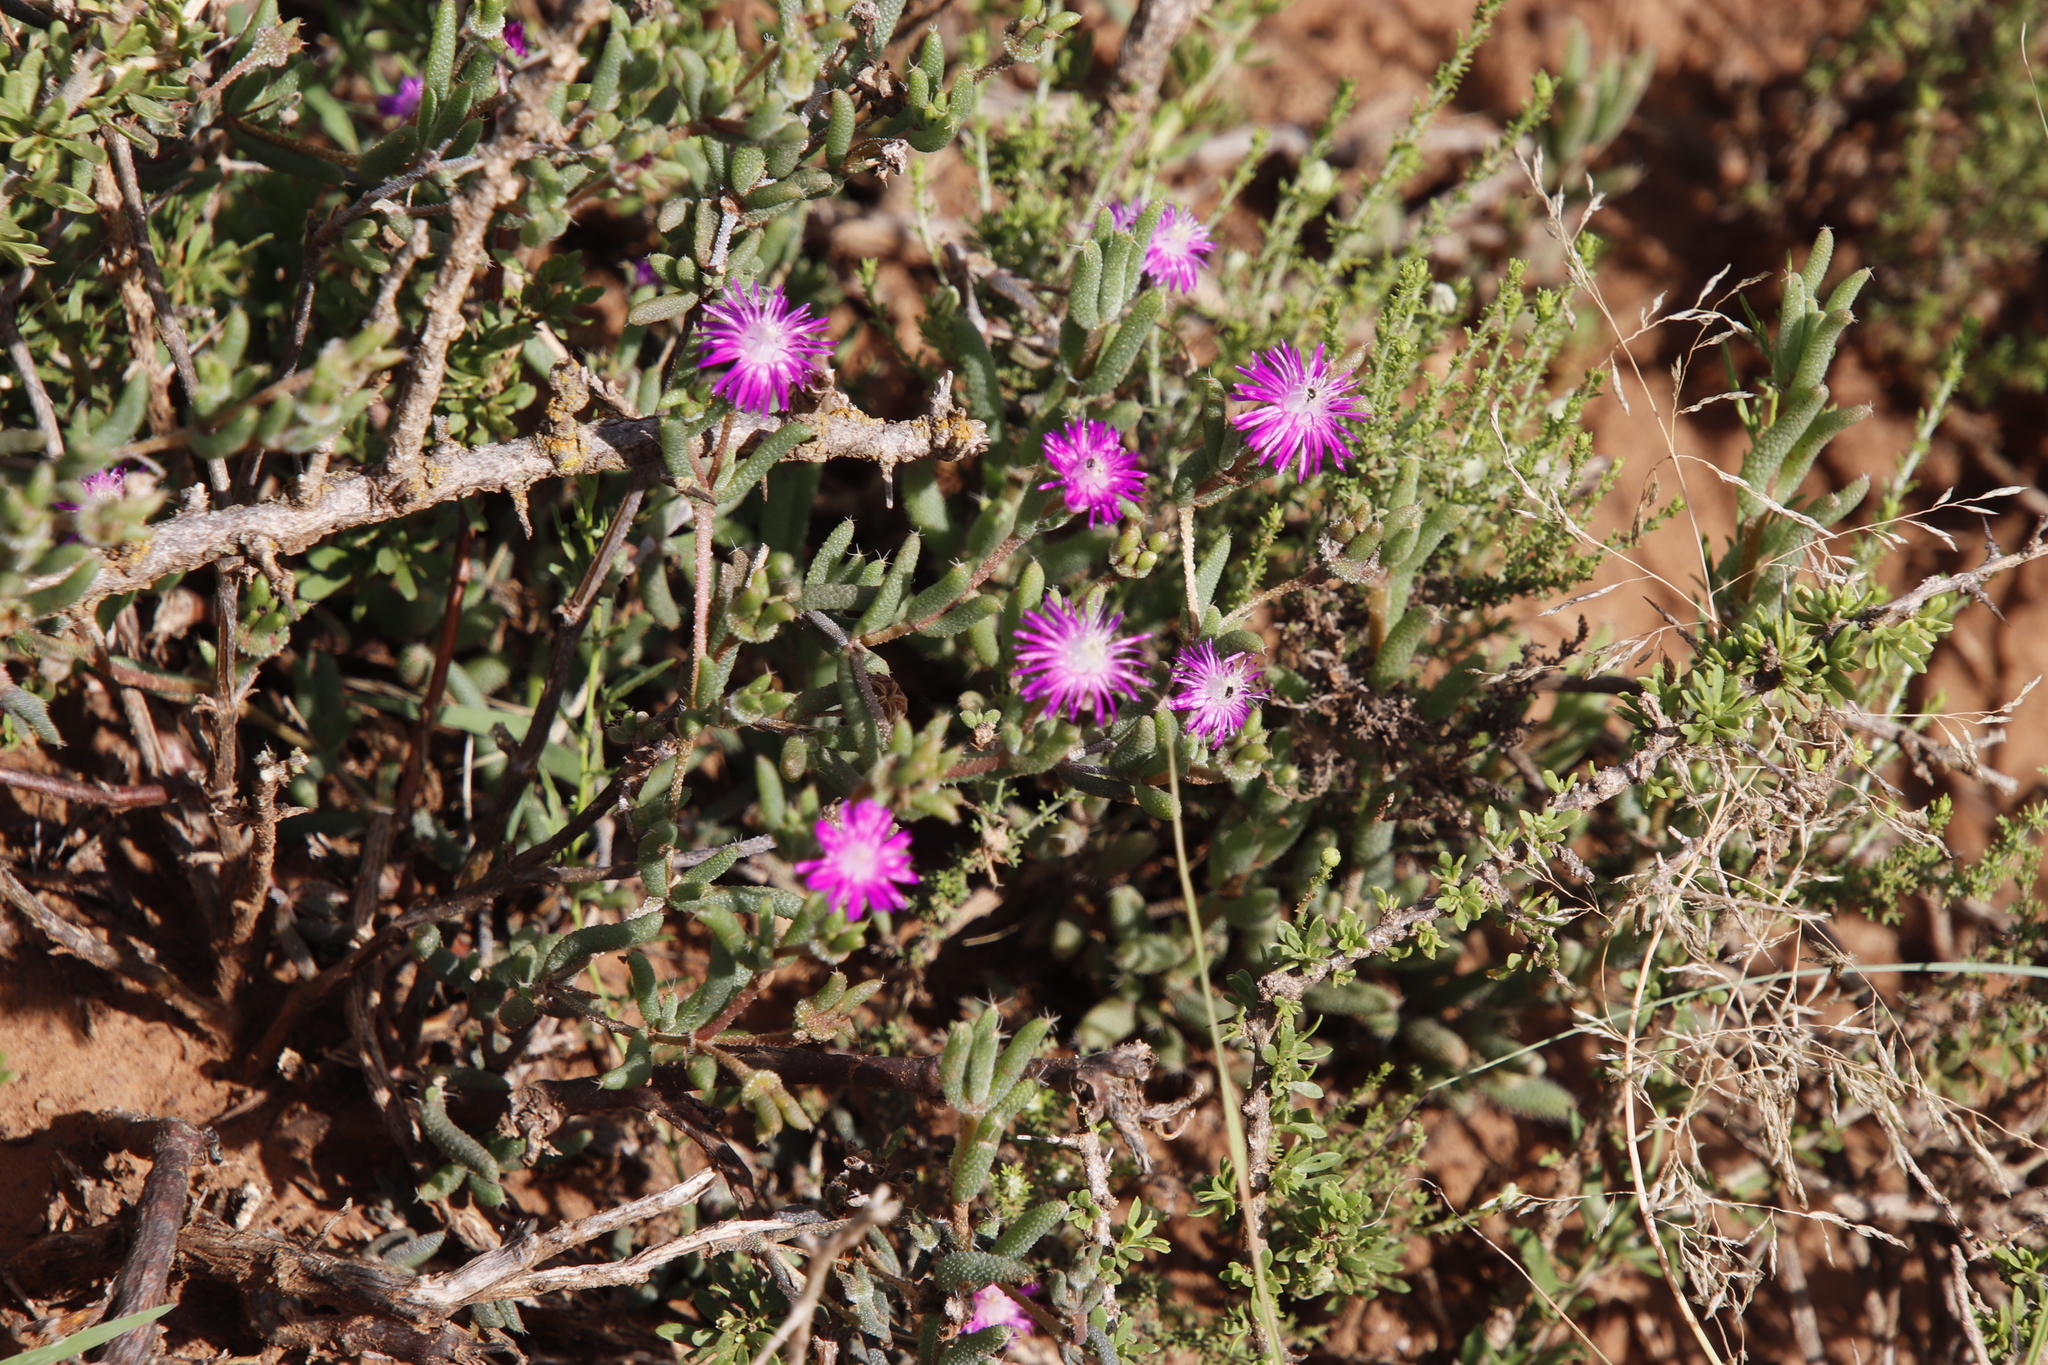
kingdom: Plantae
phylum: Tracheophyta
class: Magnoliopsida
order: Caryophyllales
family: Aizoaceae
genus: Trichodiadema
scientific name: Trichodiadema pomeridianum
